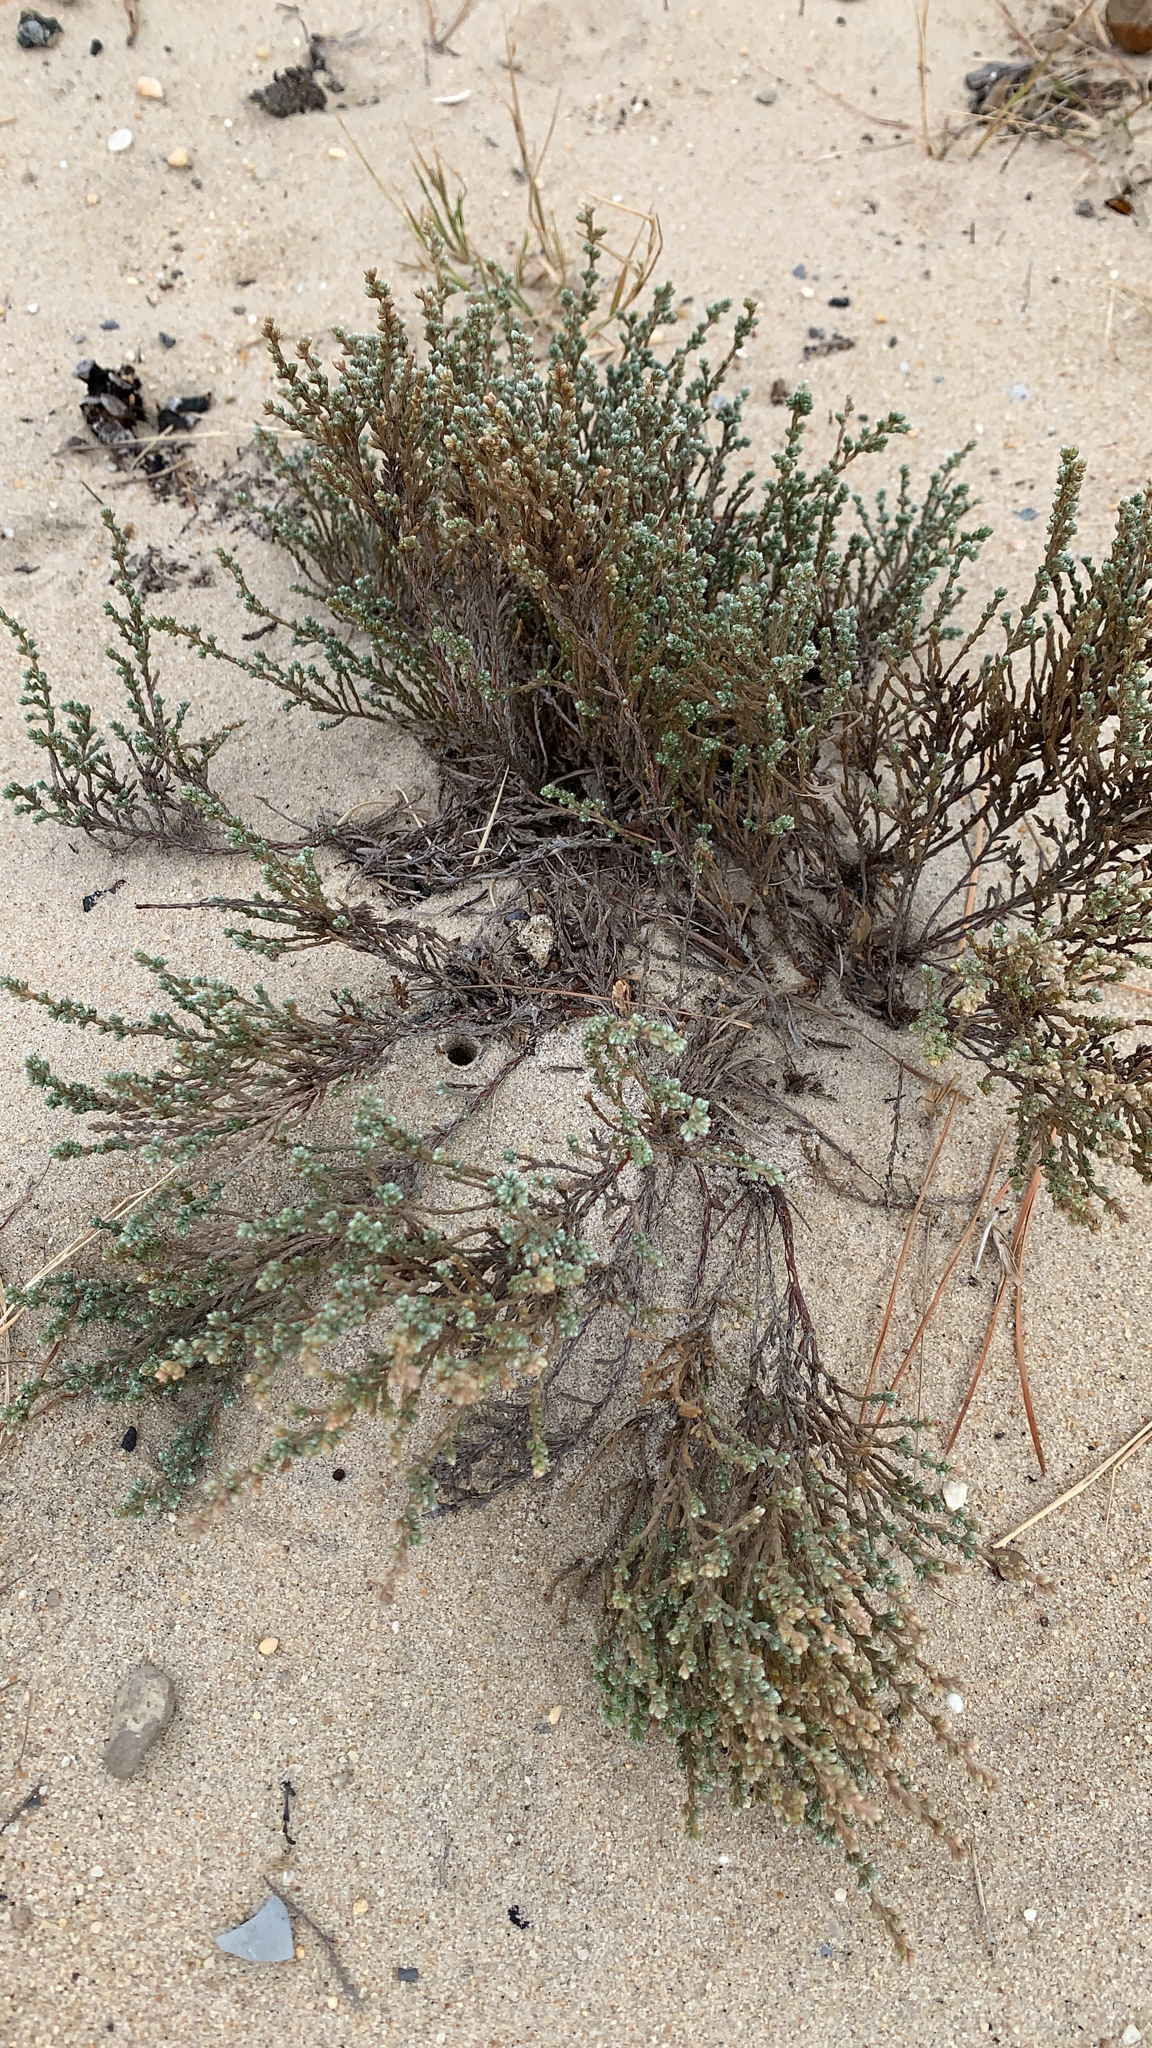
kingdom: Plantae
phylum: Tracheophyta
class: Magnoliopsida
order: Malvales
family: Cistaceae
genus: Hudsonia
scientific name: Hudsonia tomentosa
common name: Beach-heath
